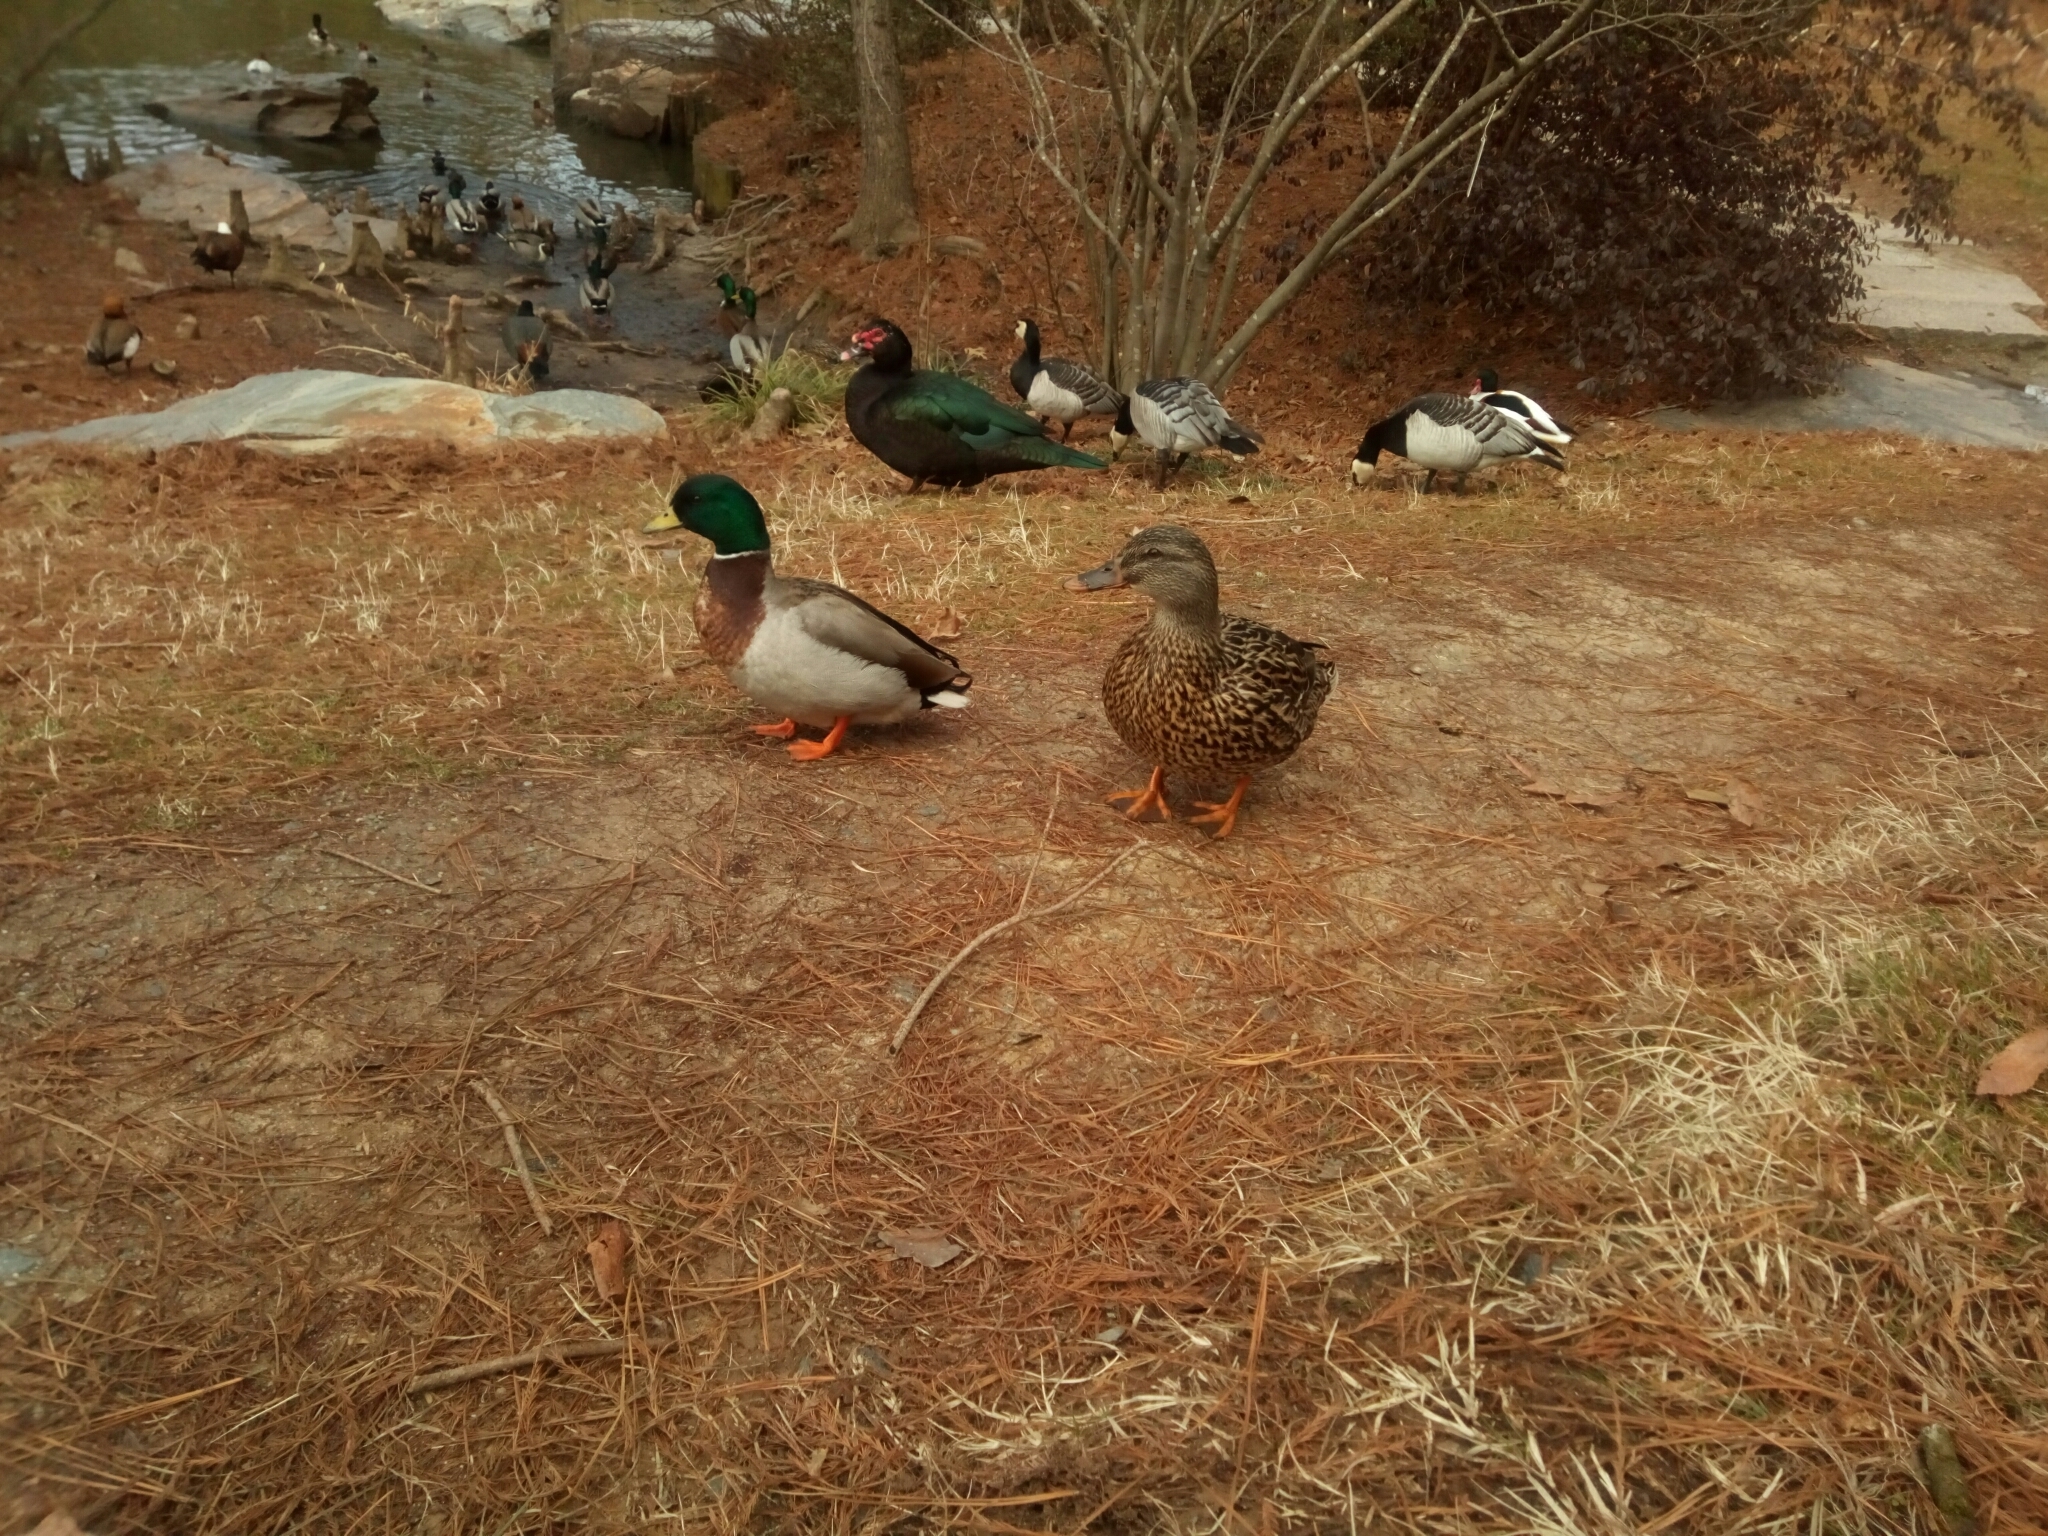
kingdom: Animalia
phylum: Chordata
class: Aves
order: Anseriformes
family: Anatidae
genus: Anas
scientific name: Anas platyrhynchos
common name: Mallard
